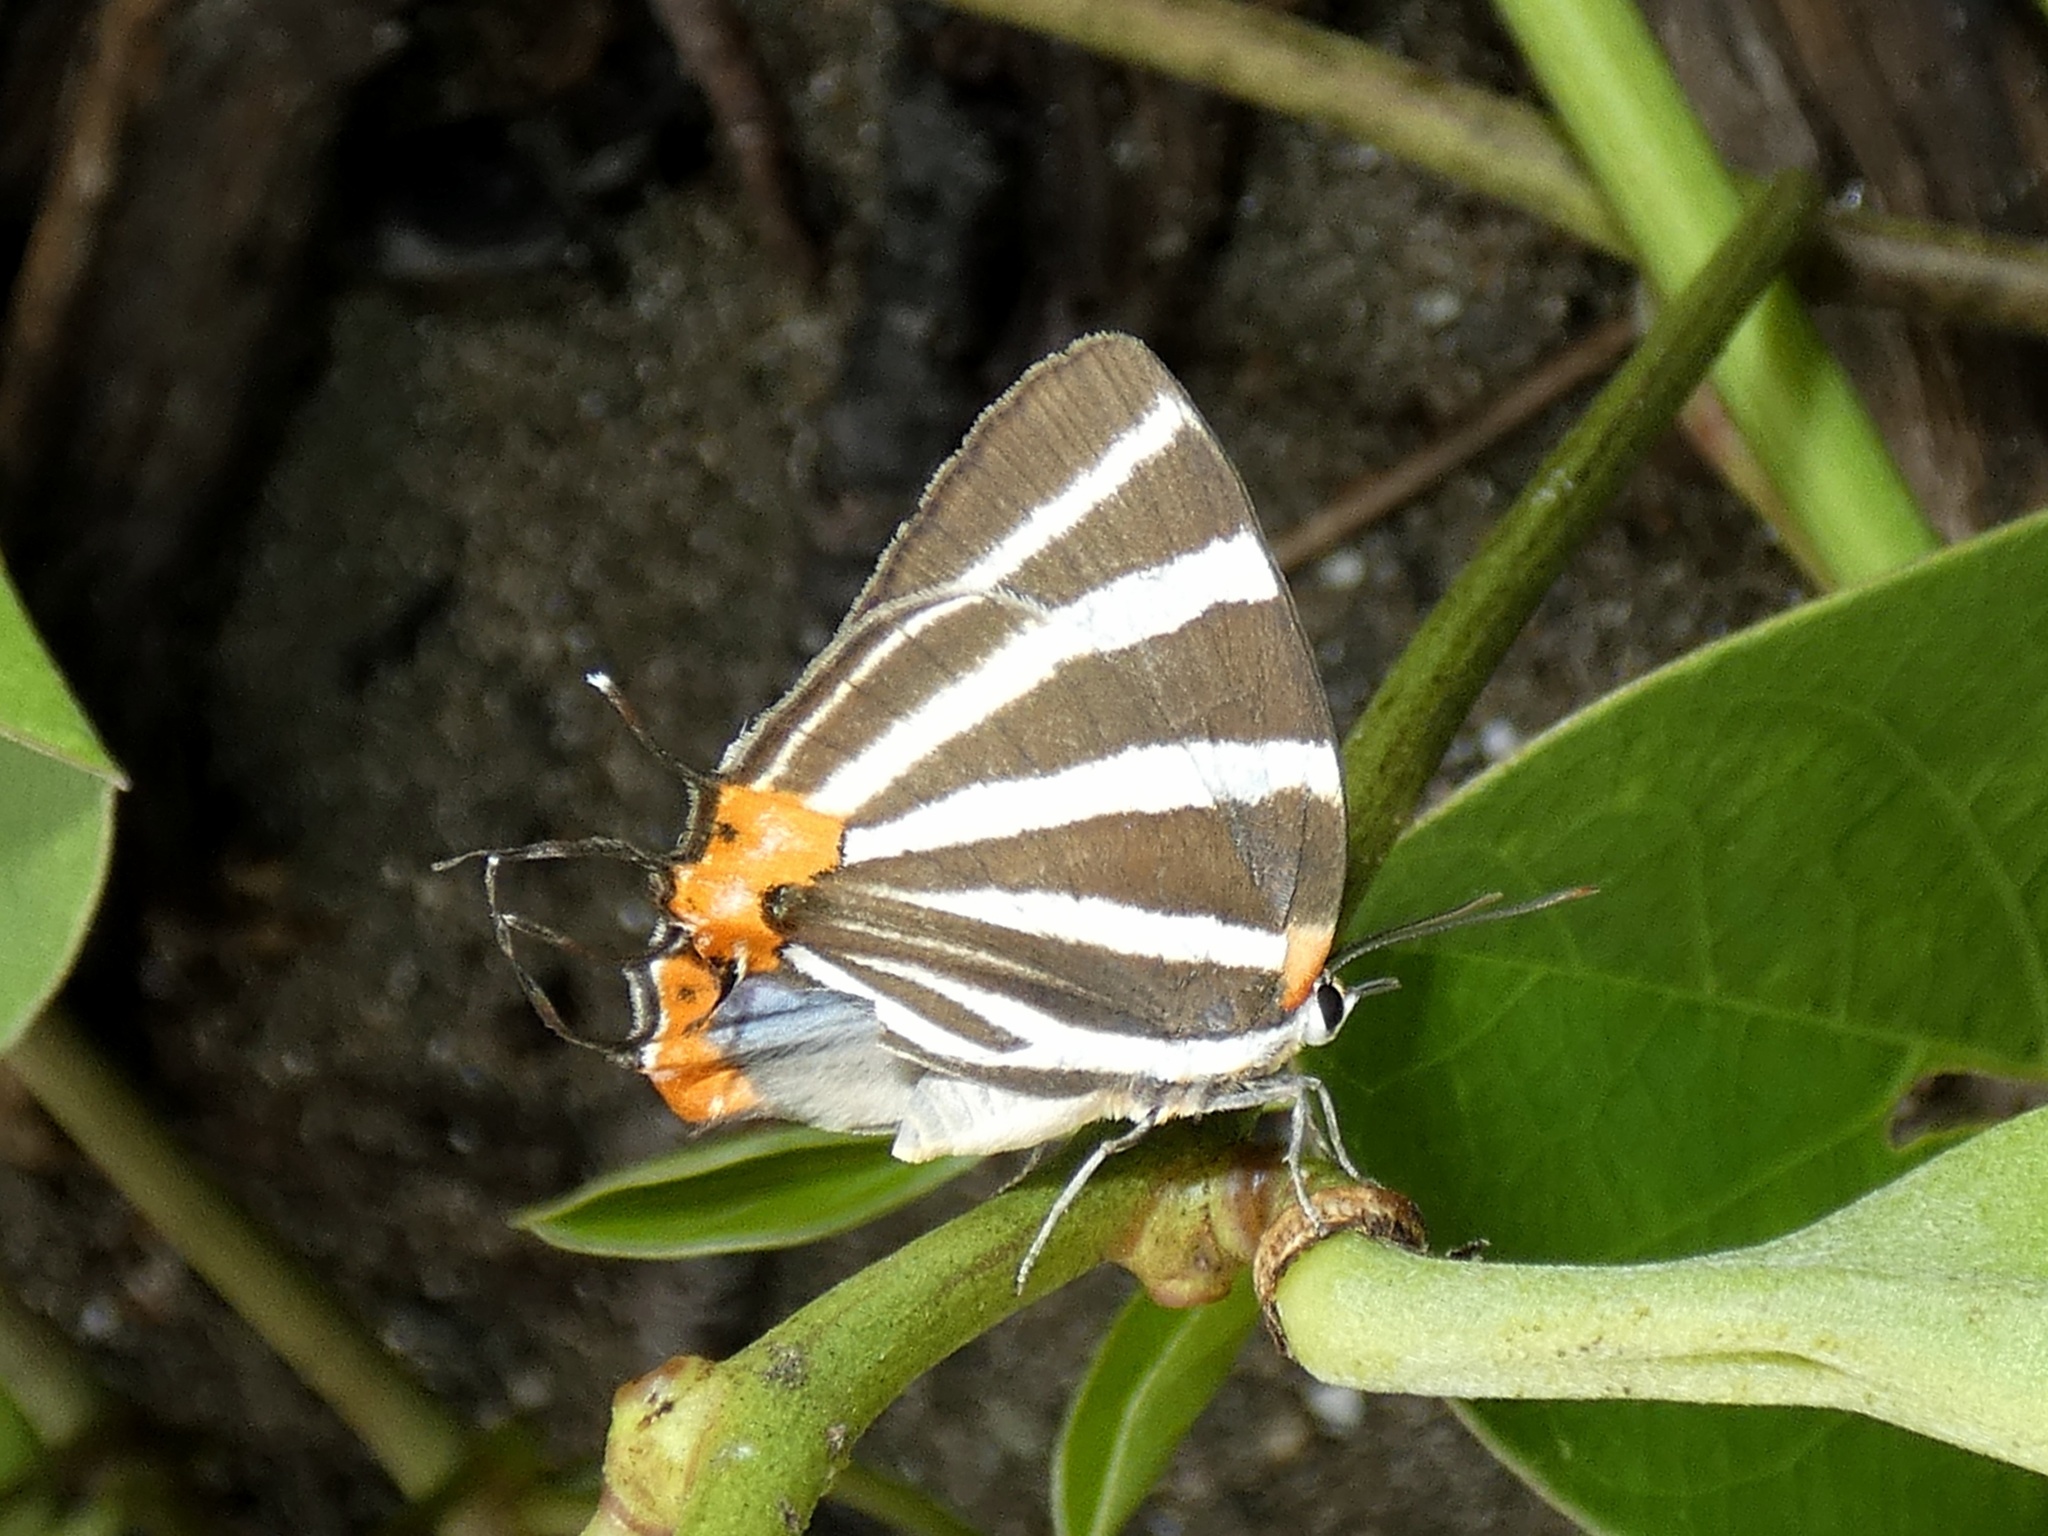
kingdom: Animalia
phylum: Arthropoda
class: Insecta
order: Lepidoptera
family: Lycaenidae
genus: Thecla
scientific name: Thecla bathildis
